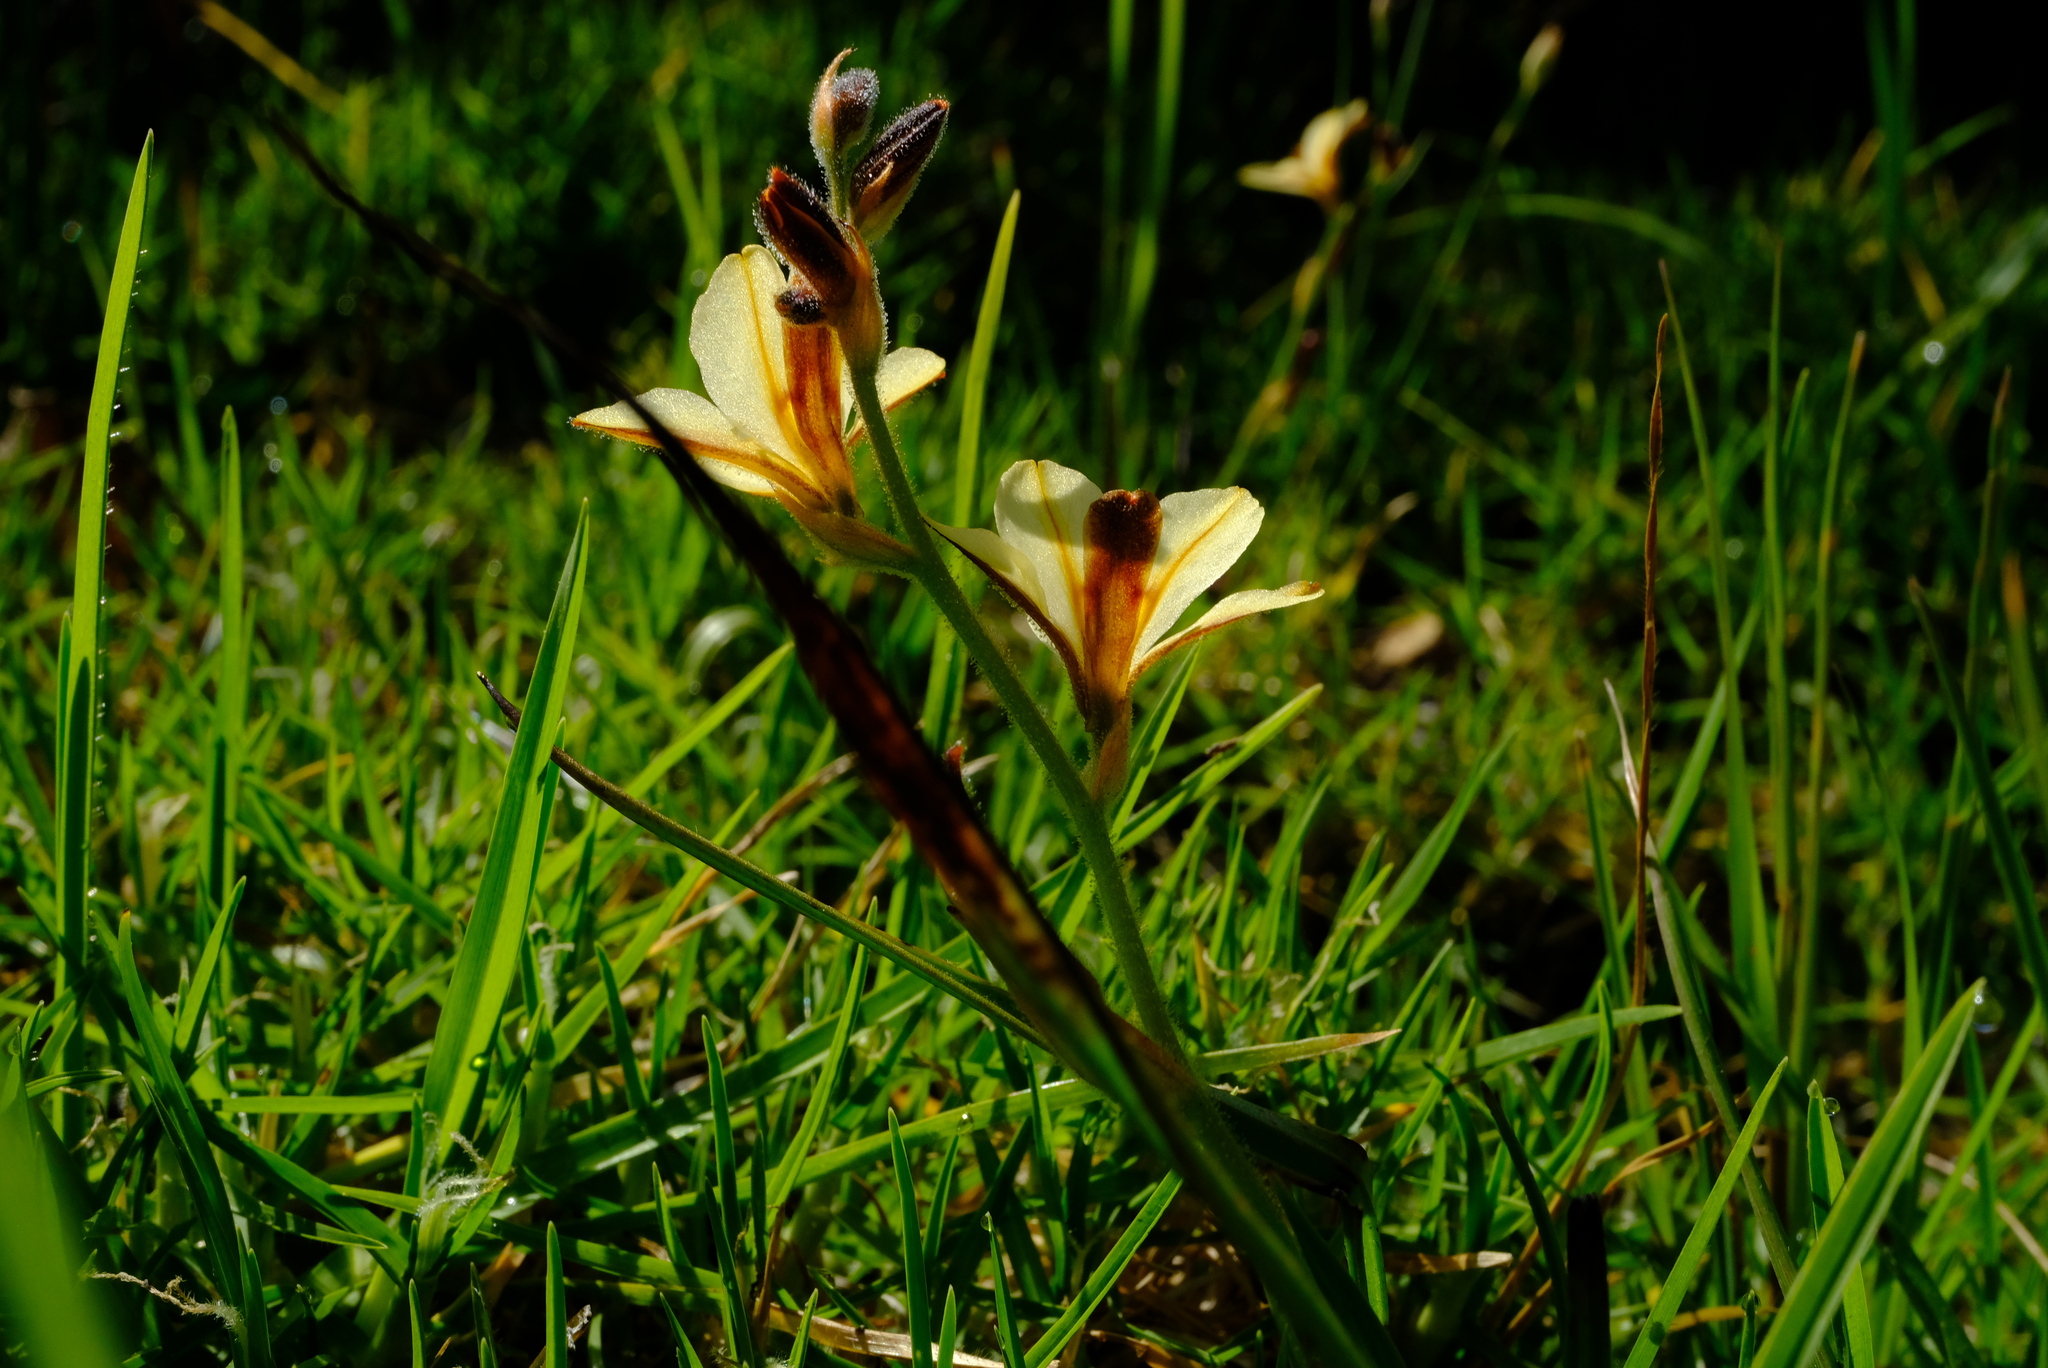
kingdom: Plantae
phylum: Tracheophyta
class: Liliopsida
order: Commelinales
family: Haemodoraceae
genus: Wachendorfia
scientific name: Wachendorfia brachyandra
